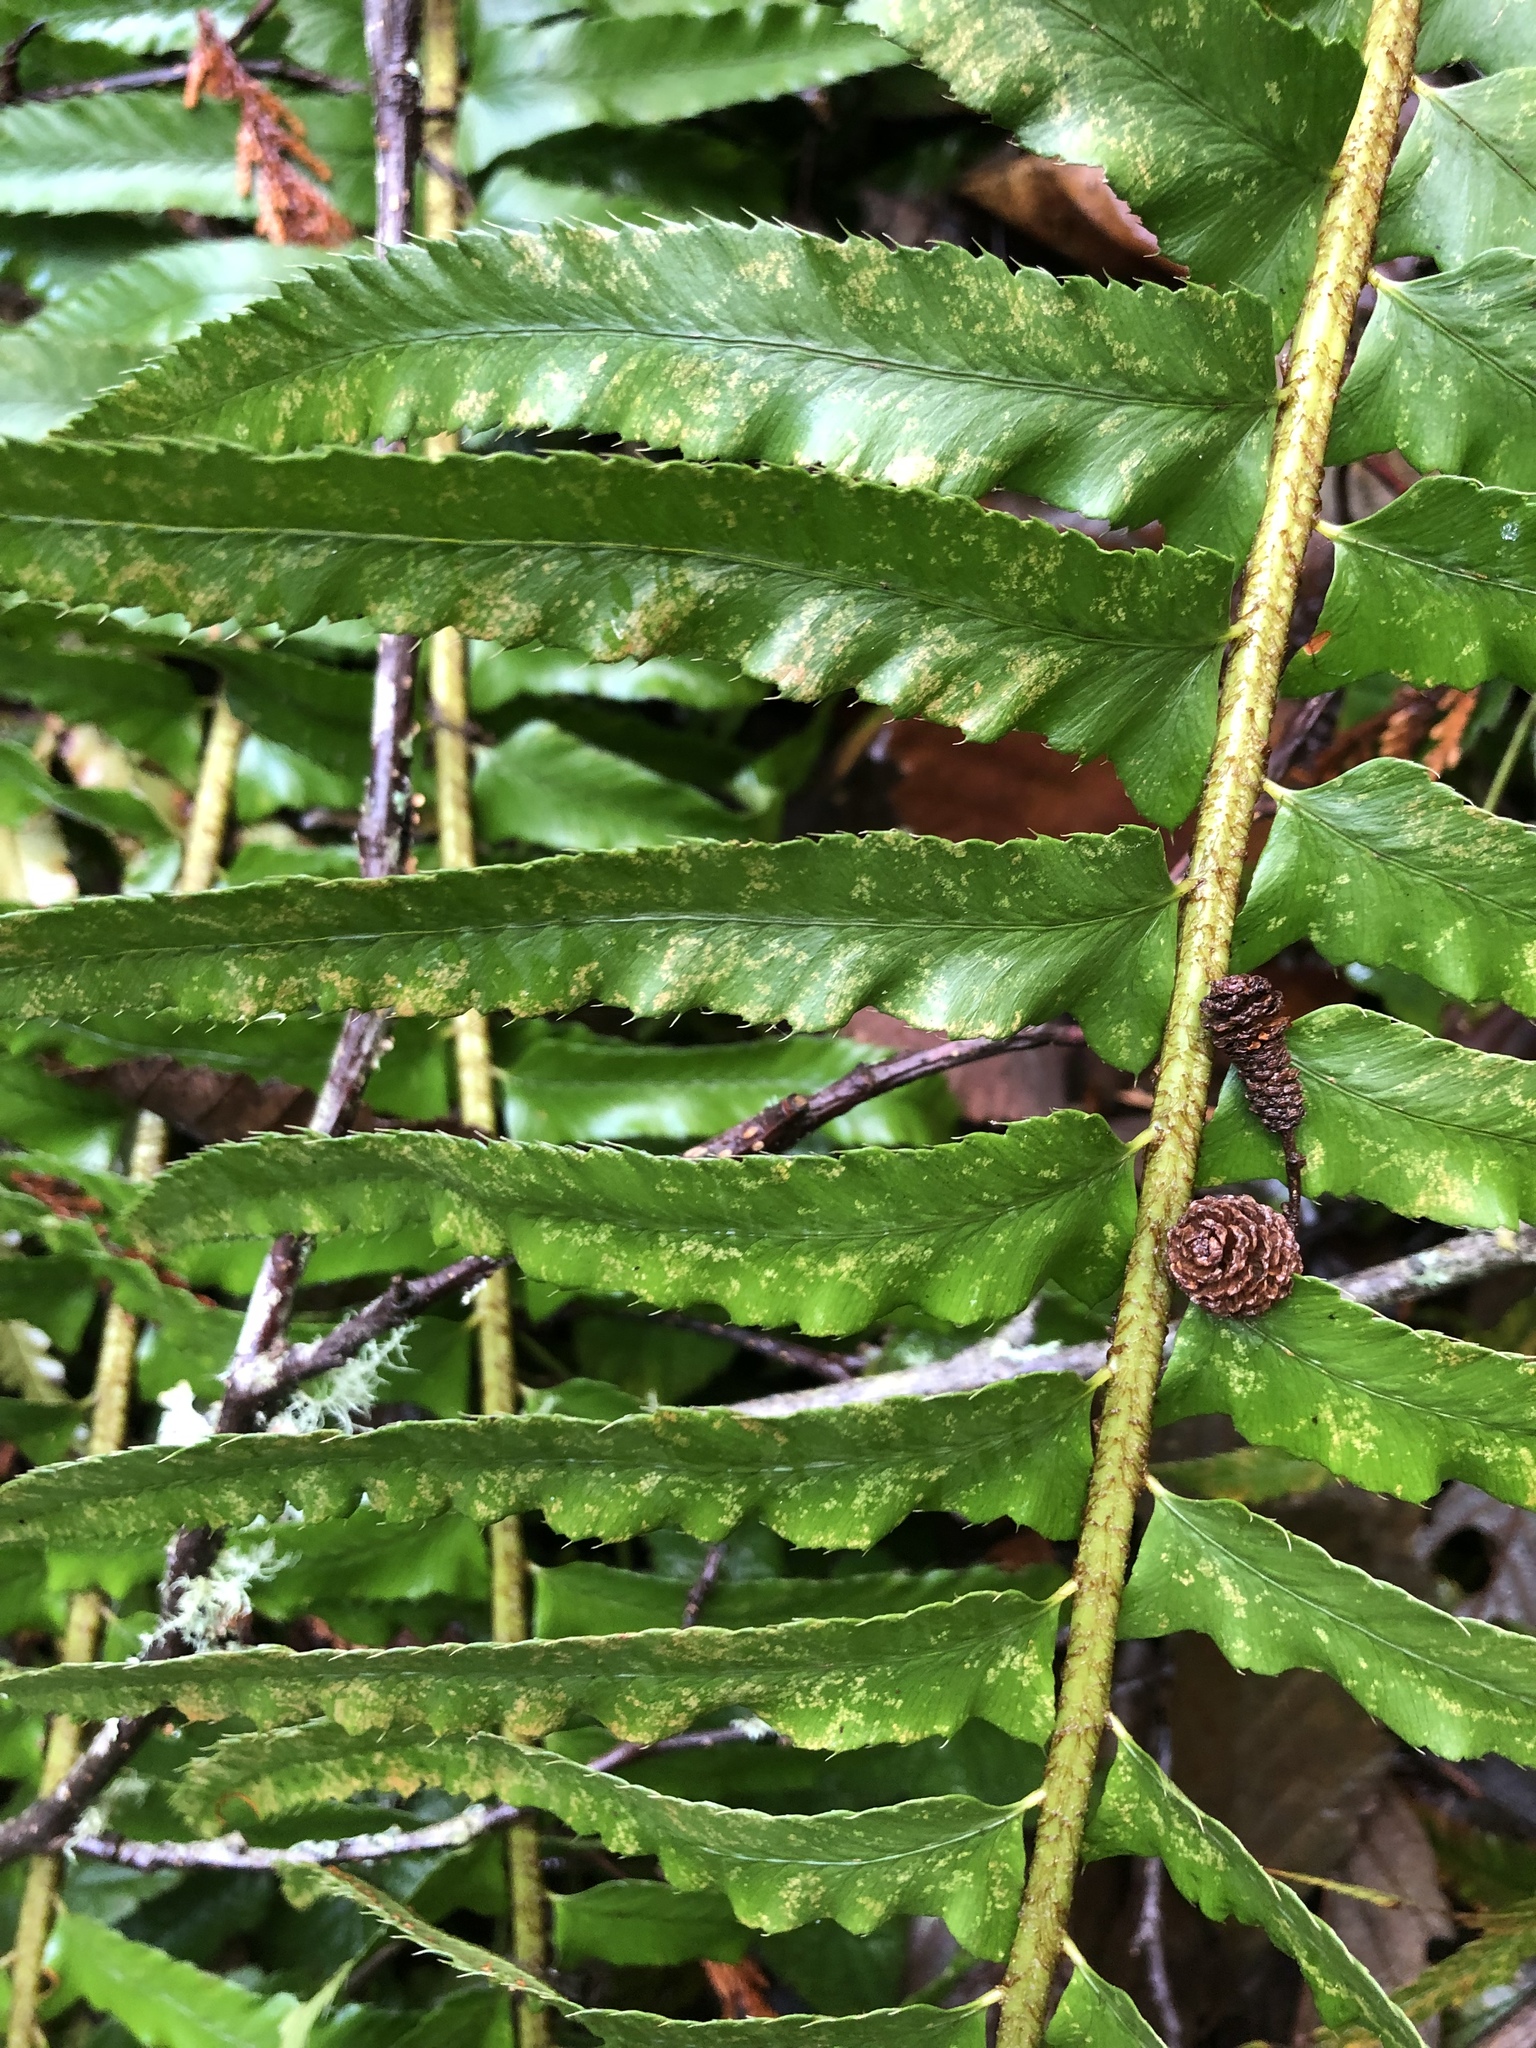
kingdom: Plantae
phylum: Tracheophyta
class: Polypodiopsida
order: Polypodiales
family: Dryopteridaceae
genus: Polystichum
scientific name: Polystichum munitum
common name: Western sword-fern
